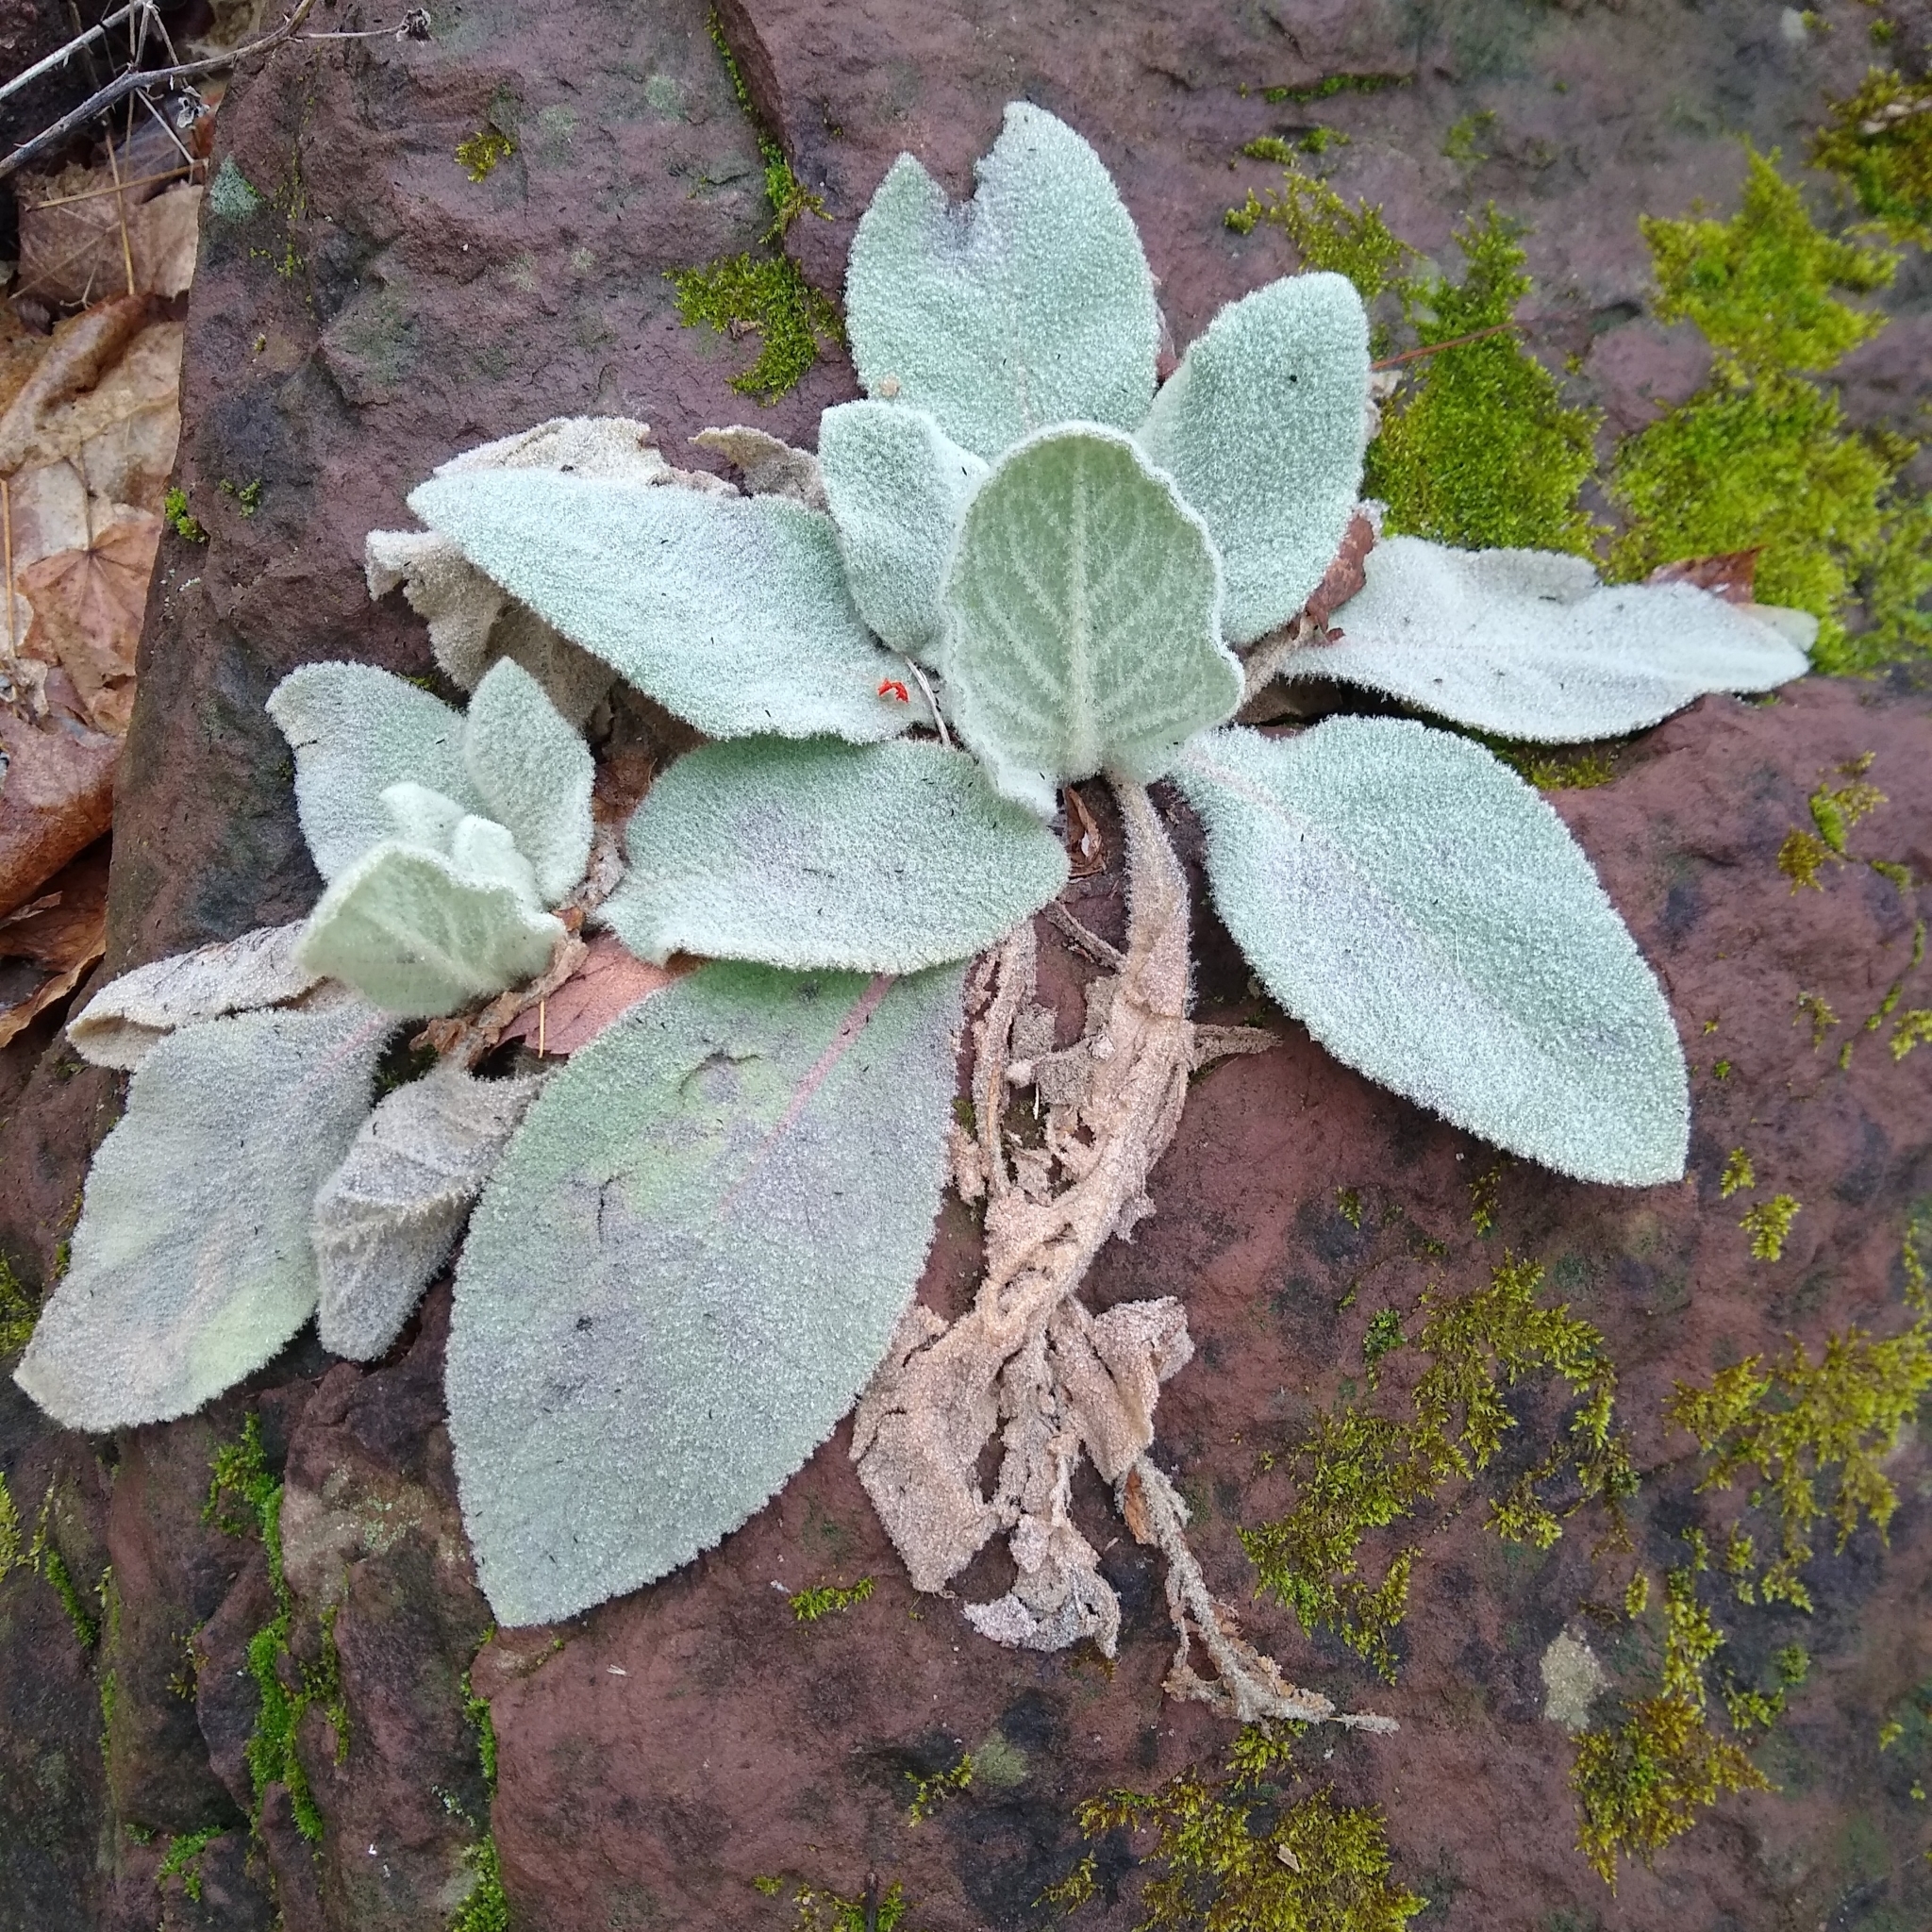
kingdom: Plantae
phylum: Tracheophyta
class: Magnoliopsida
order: Lamiales
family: Scrophulariaceae
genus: Verbascum
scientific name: Verbascum thapsus
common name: Common mullein
